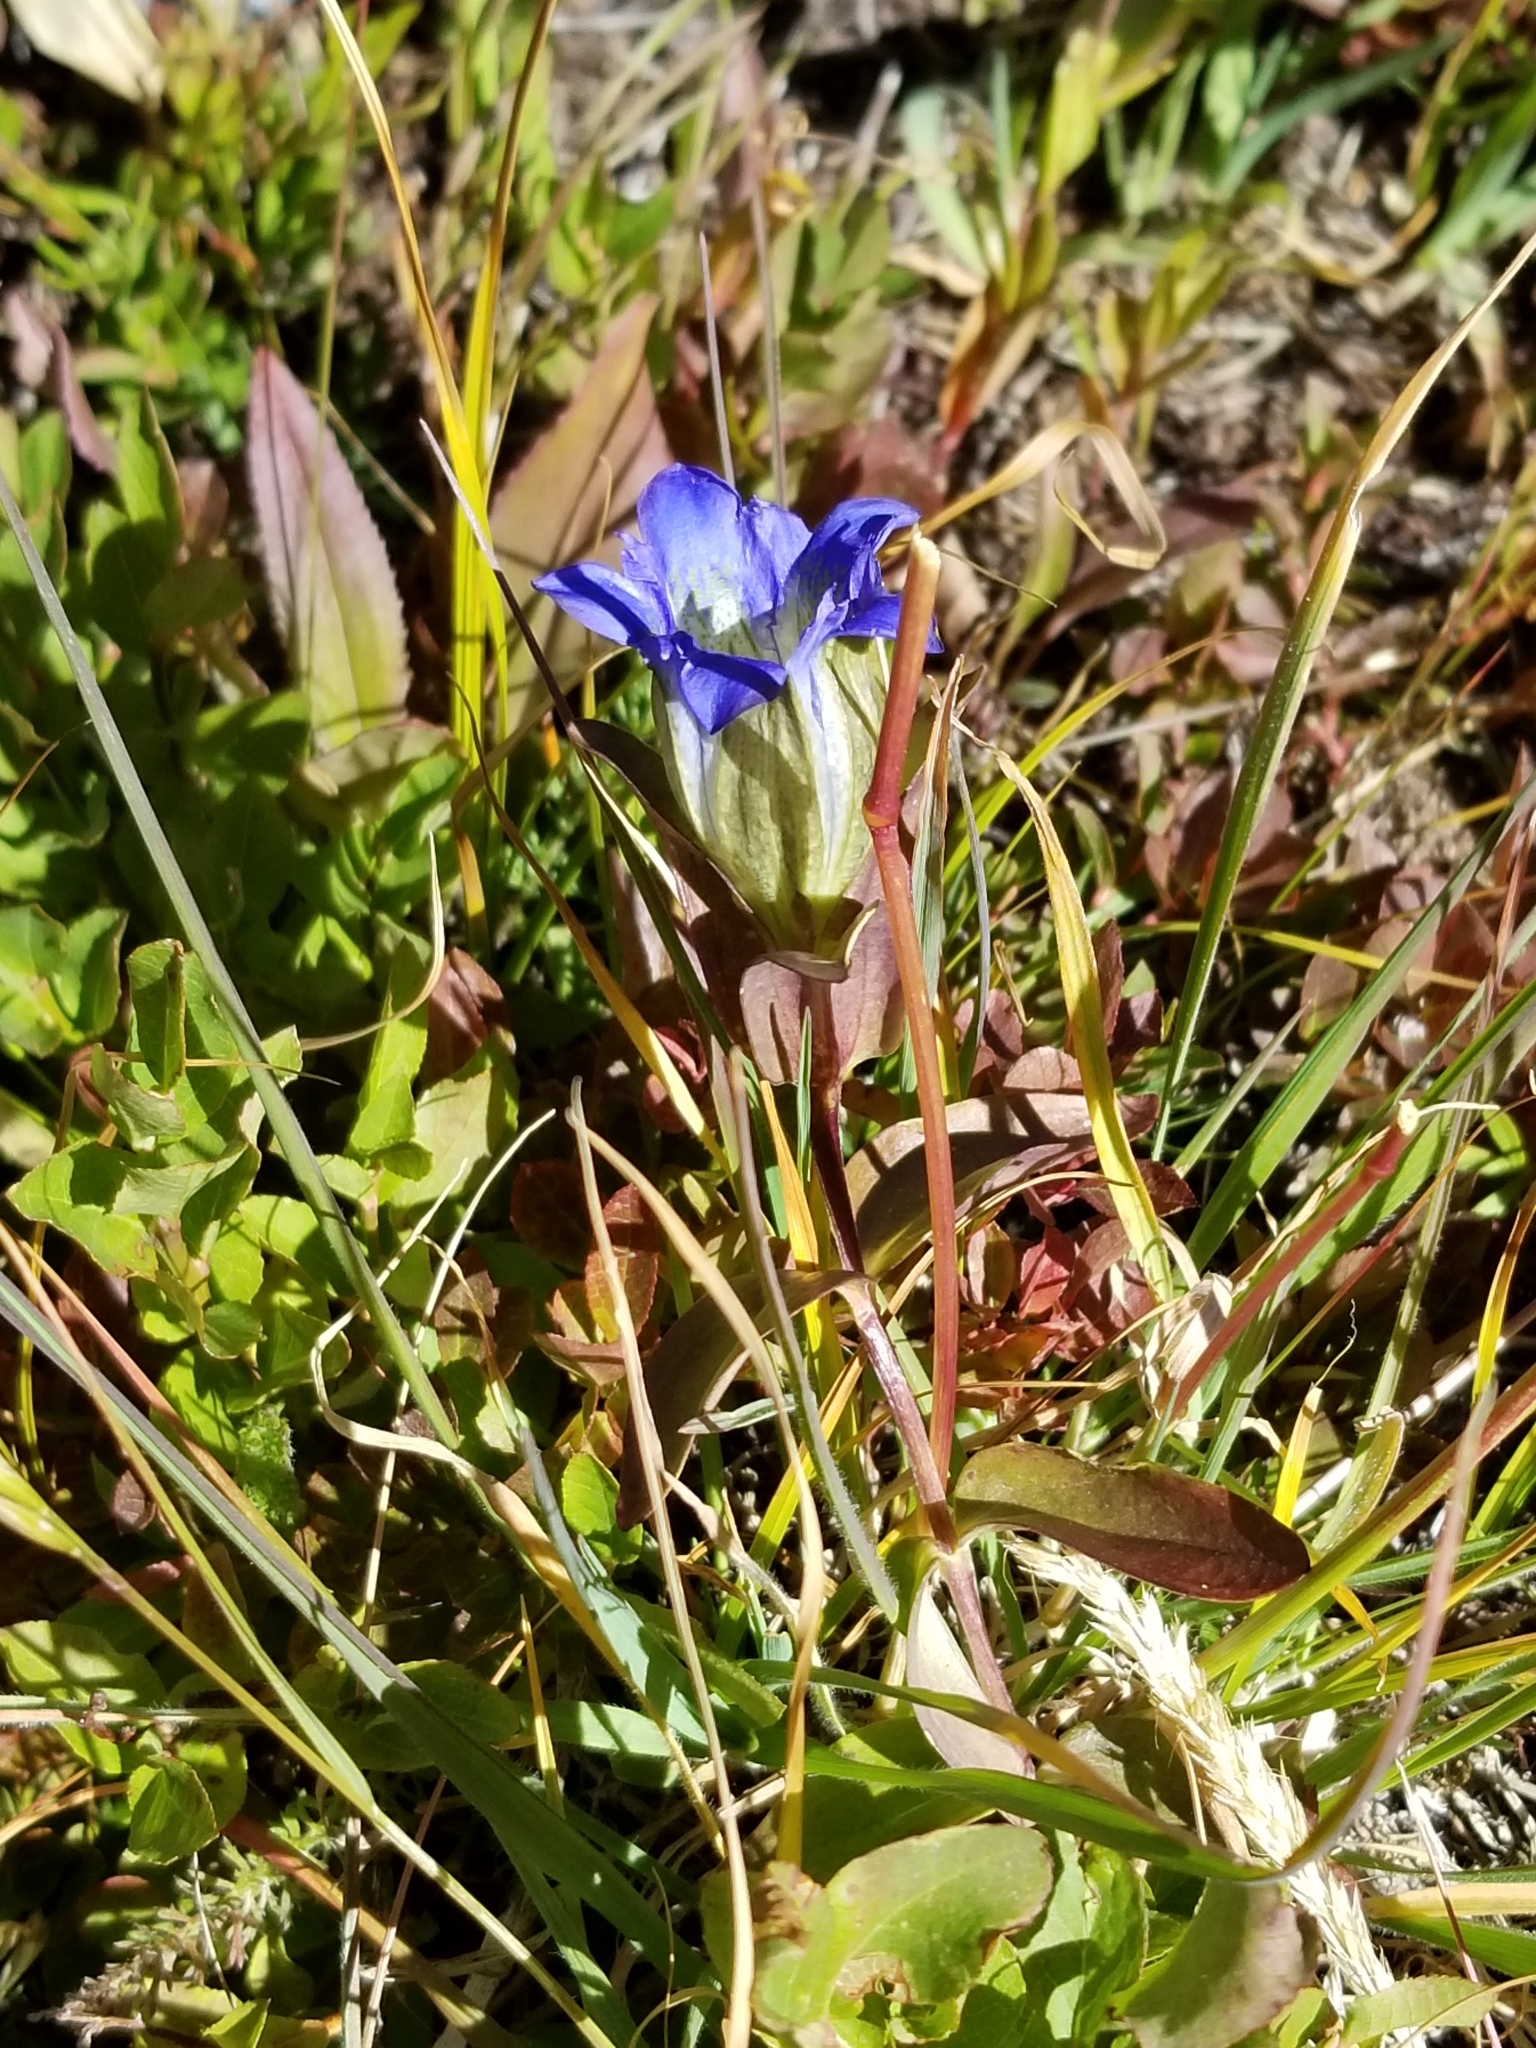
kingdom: Plantae
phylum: Tracheophyta
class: Magnoliopsida
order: Gentianales
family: Gentianaceae
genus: Gentiana
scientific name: Gentiana parryi
